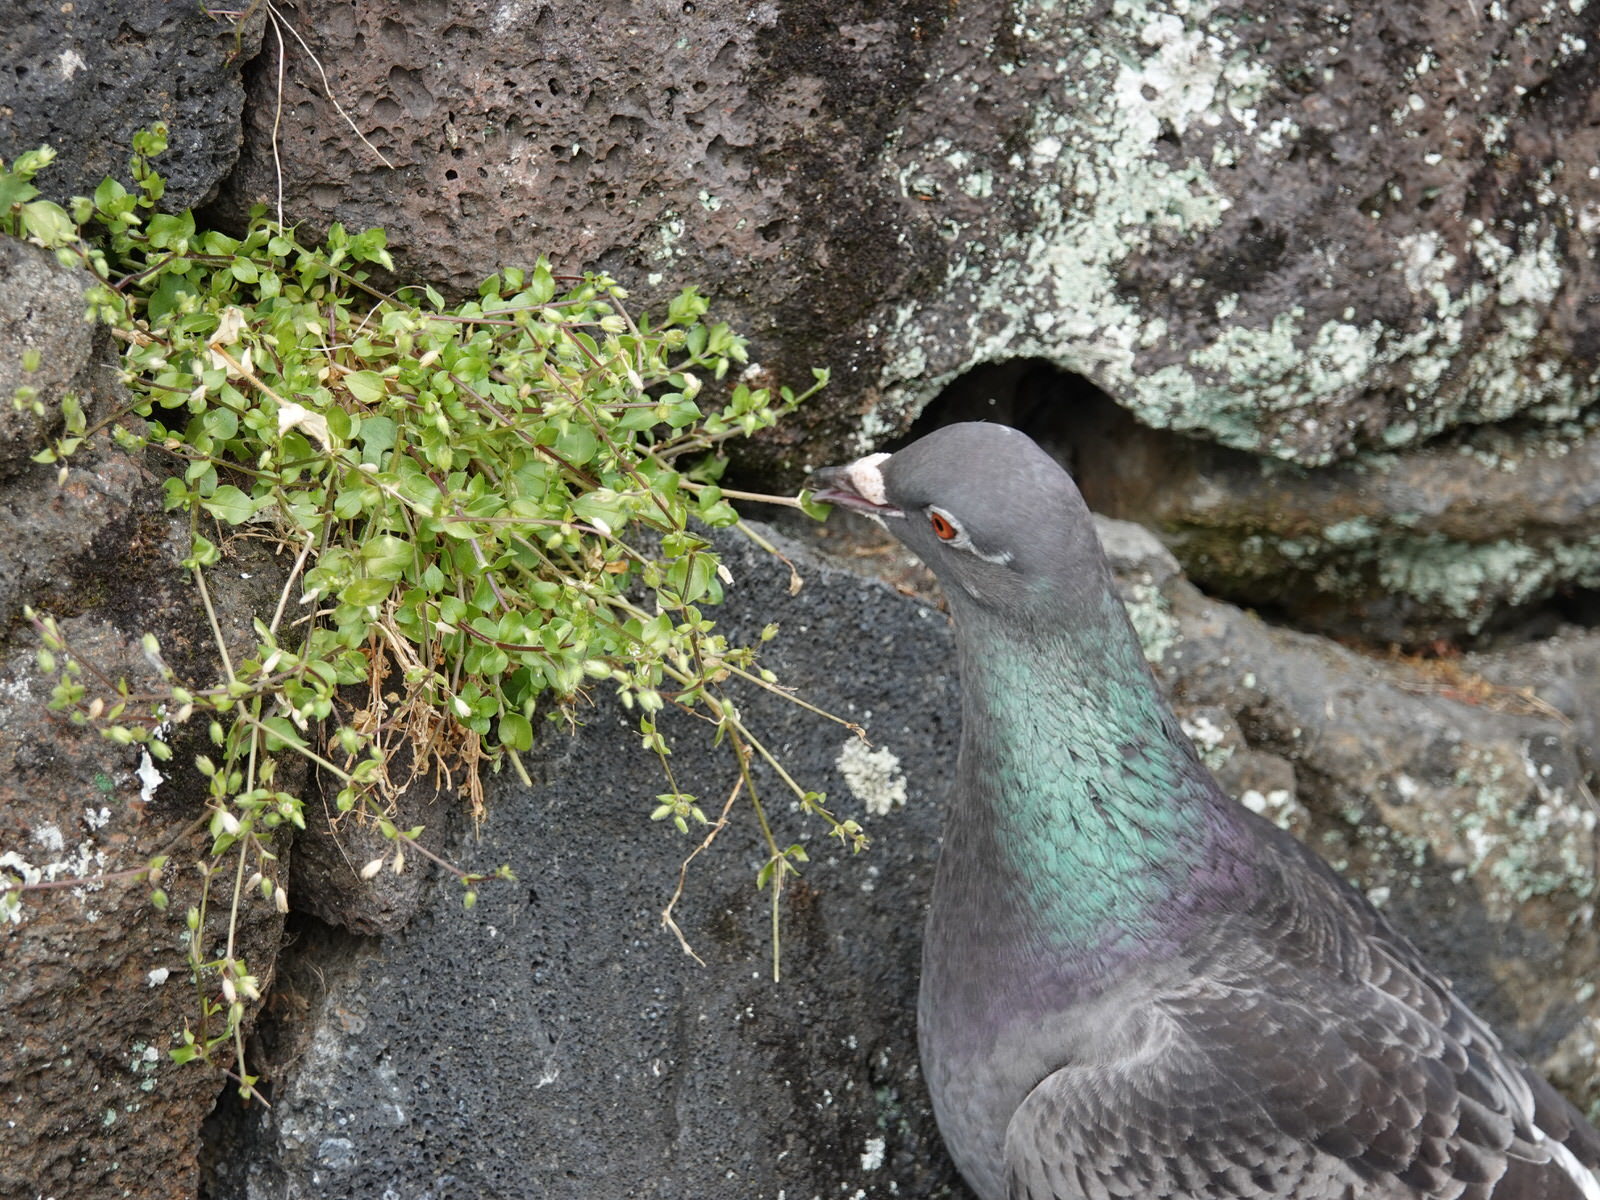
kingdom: Animalia
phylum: Chordata
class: Aves
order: Columbiformes
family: Columbidae
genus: Columba
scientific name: Columba livia
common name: Rock pigeon
